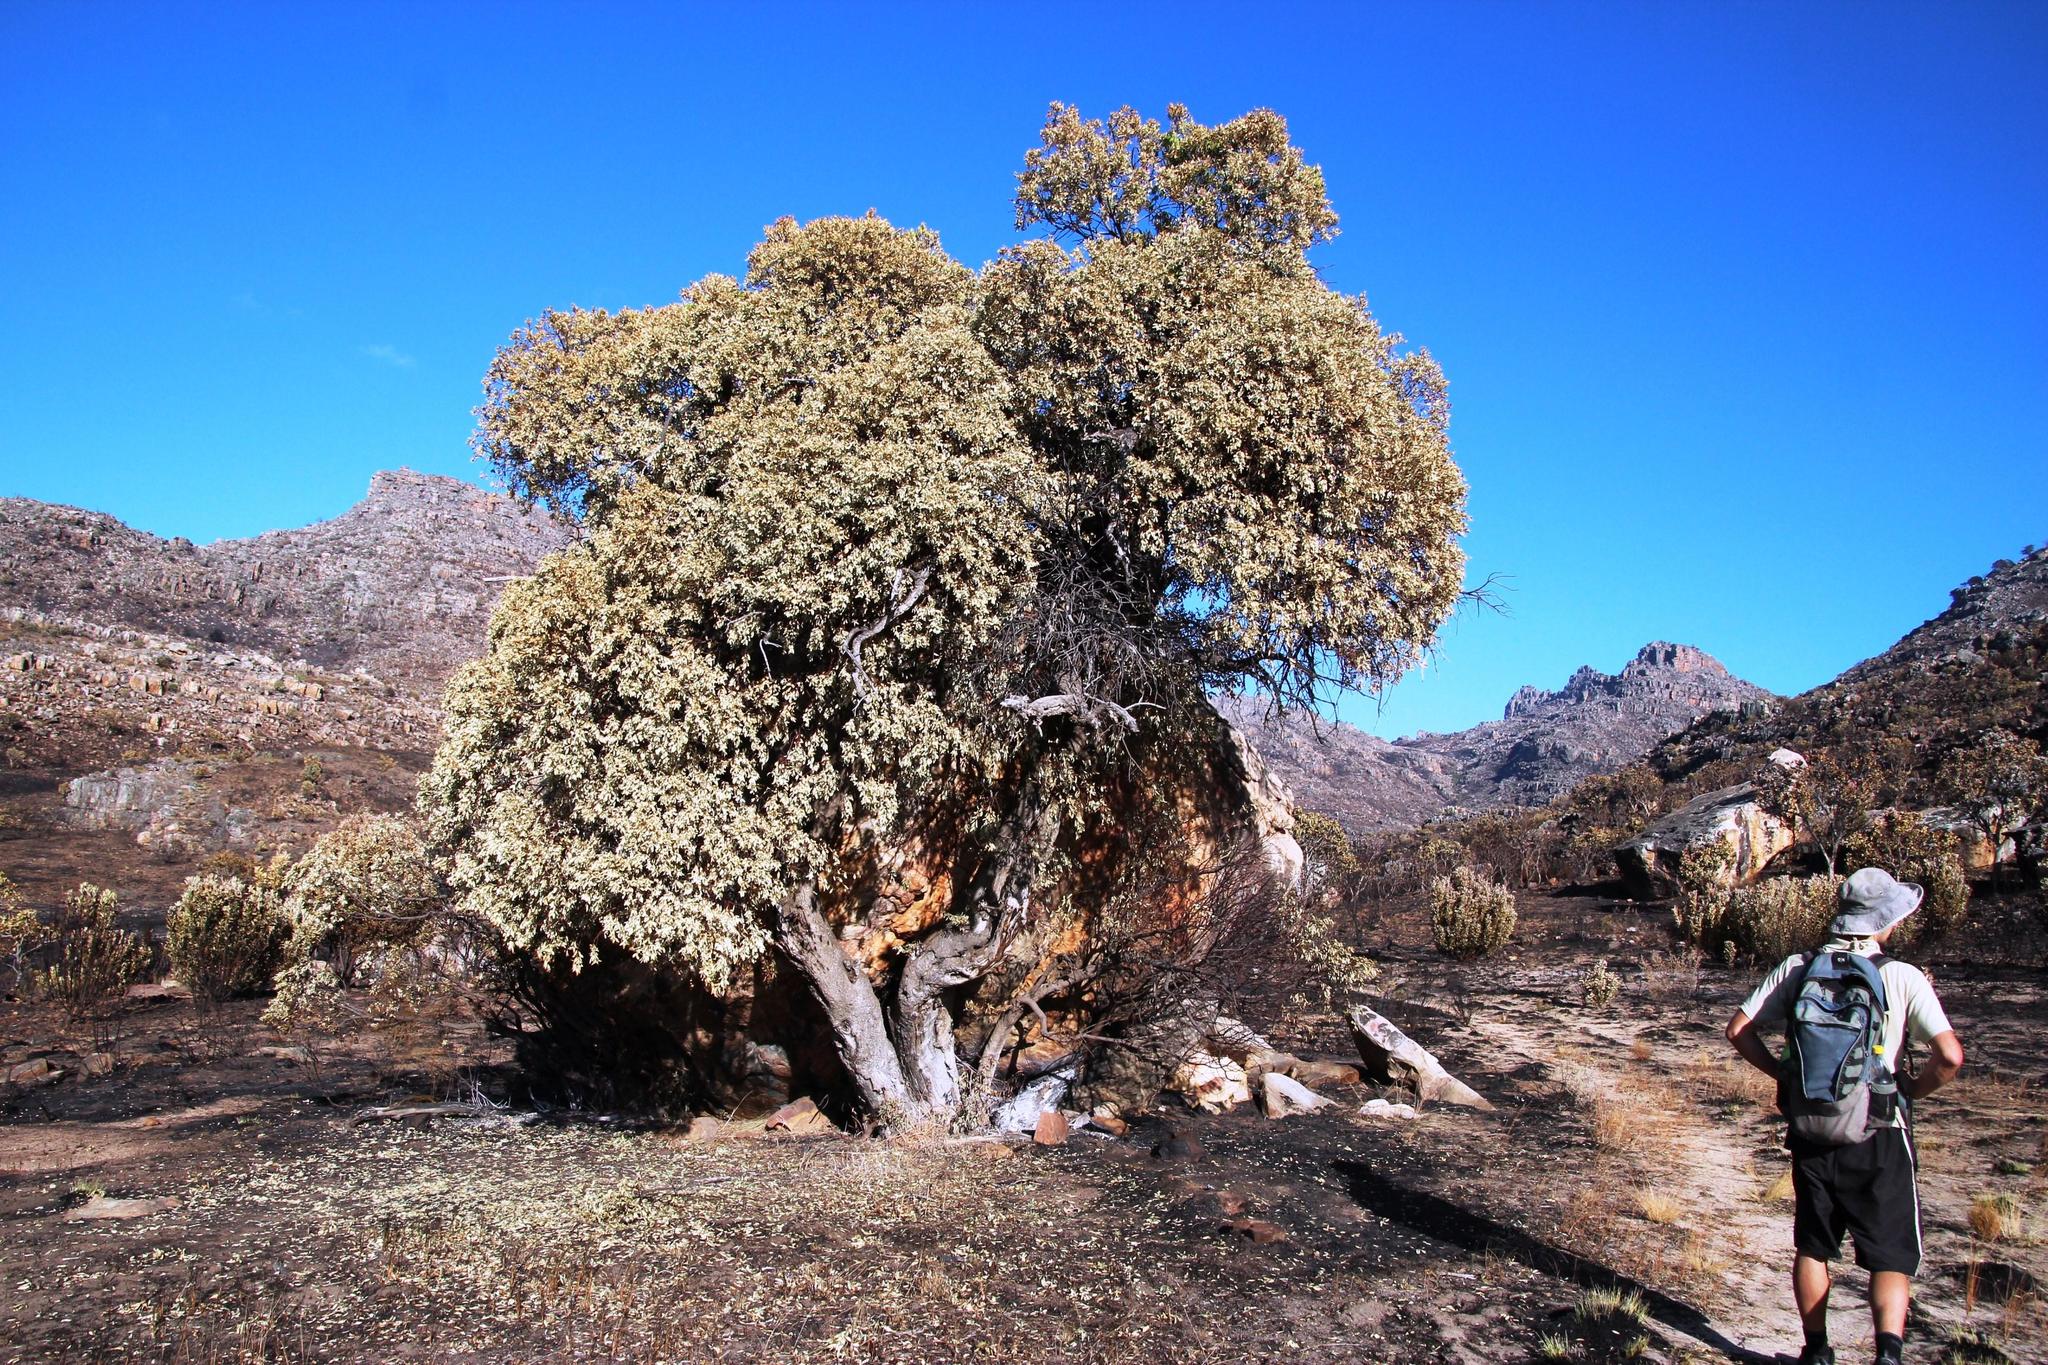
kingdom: Plantae
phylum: Tracheophyta
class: Magnoliopsida
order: Celastrales
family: Celastraceae
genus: Gymnosporia
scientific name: Gymnosporia laurina
